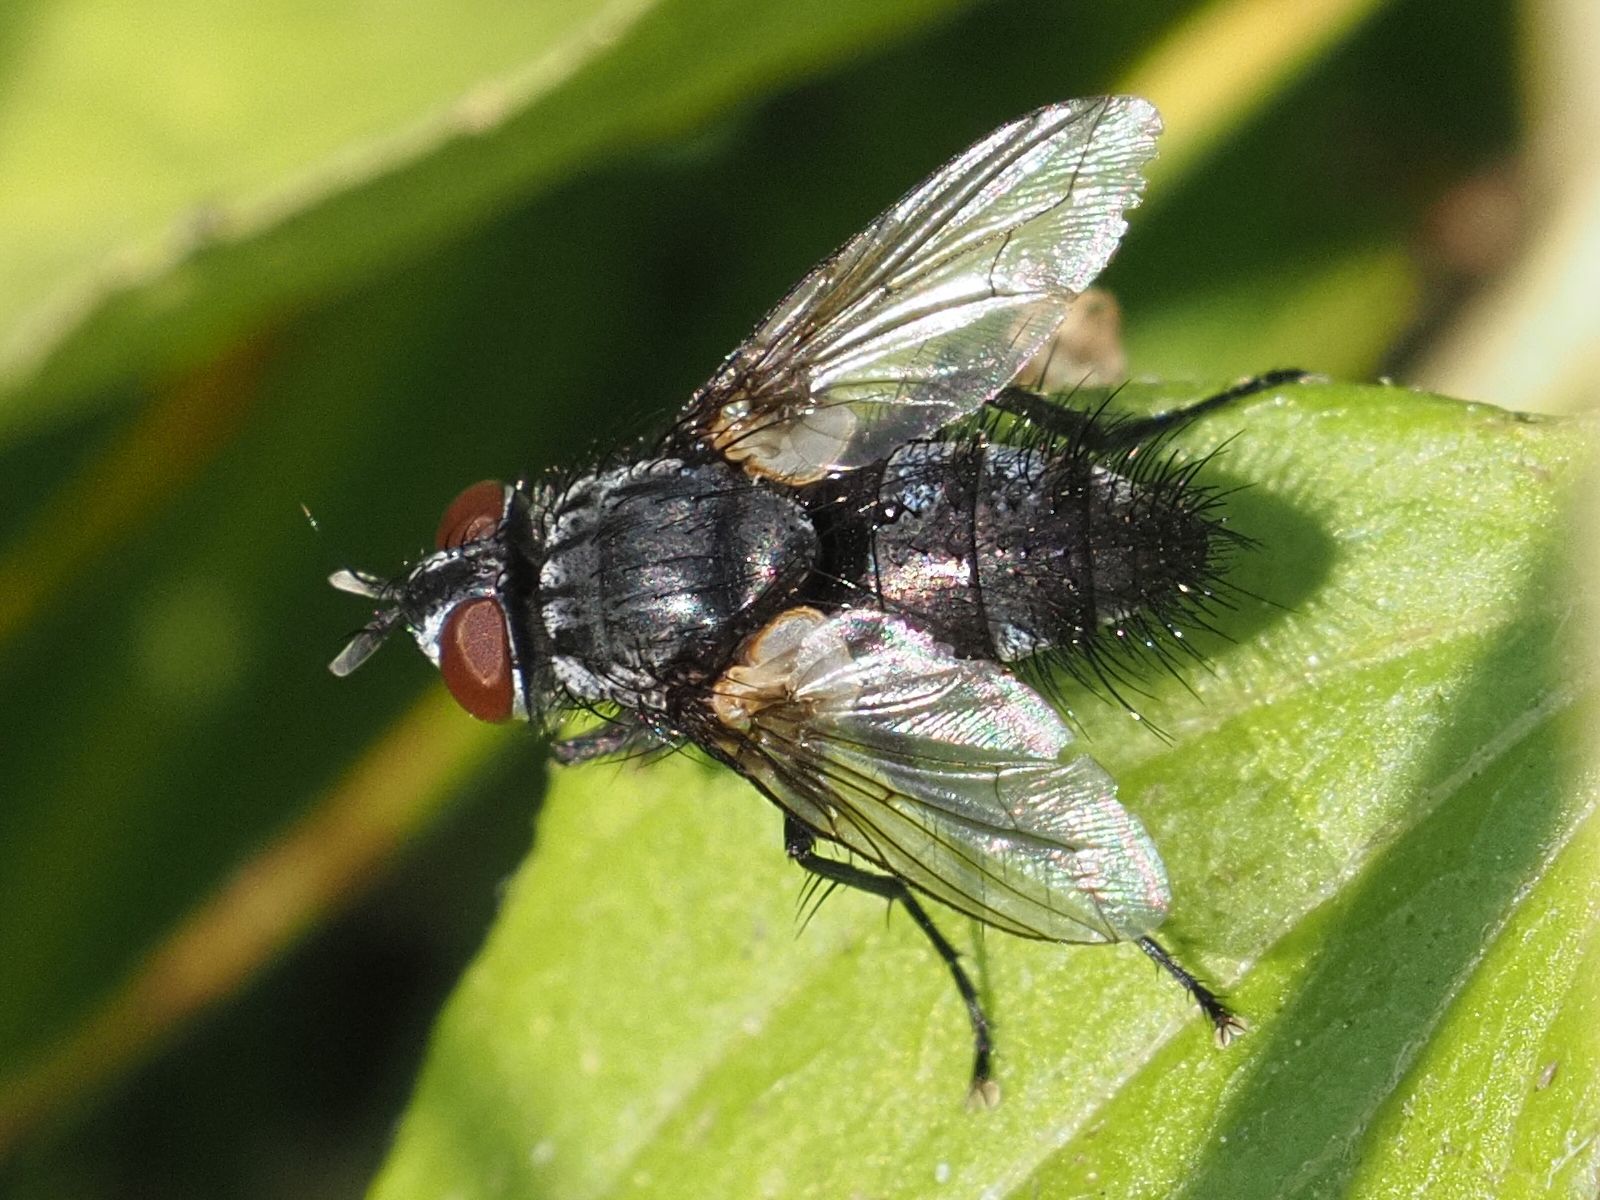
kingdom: Animalia
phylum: Arthropoda
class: Insecta
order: Diptera
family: Tachinidae
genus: Blondelia
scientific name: Blondelia nigripes
